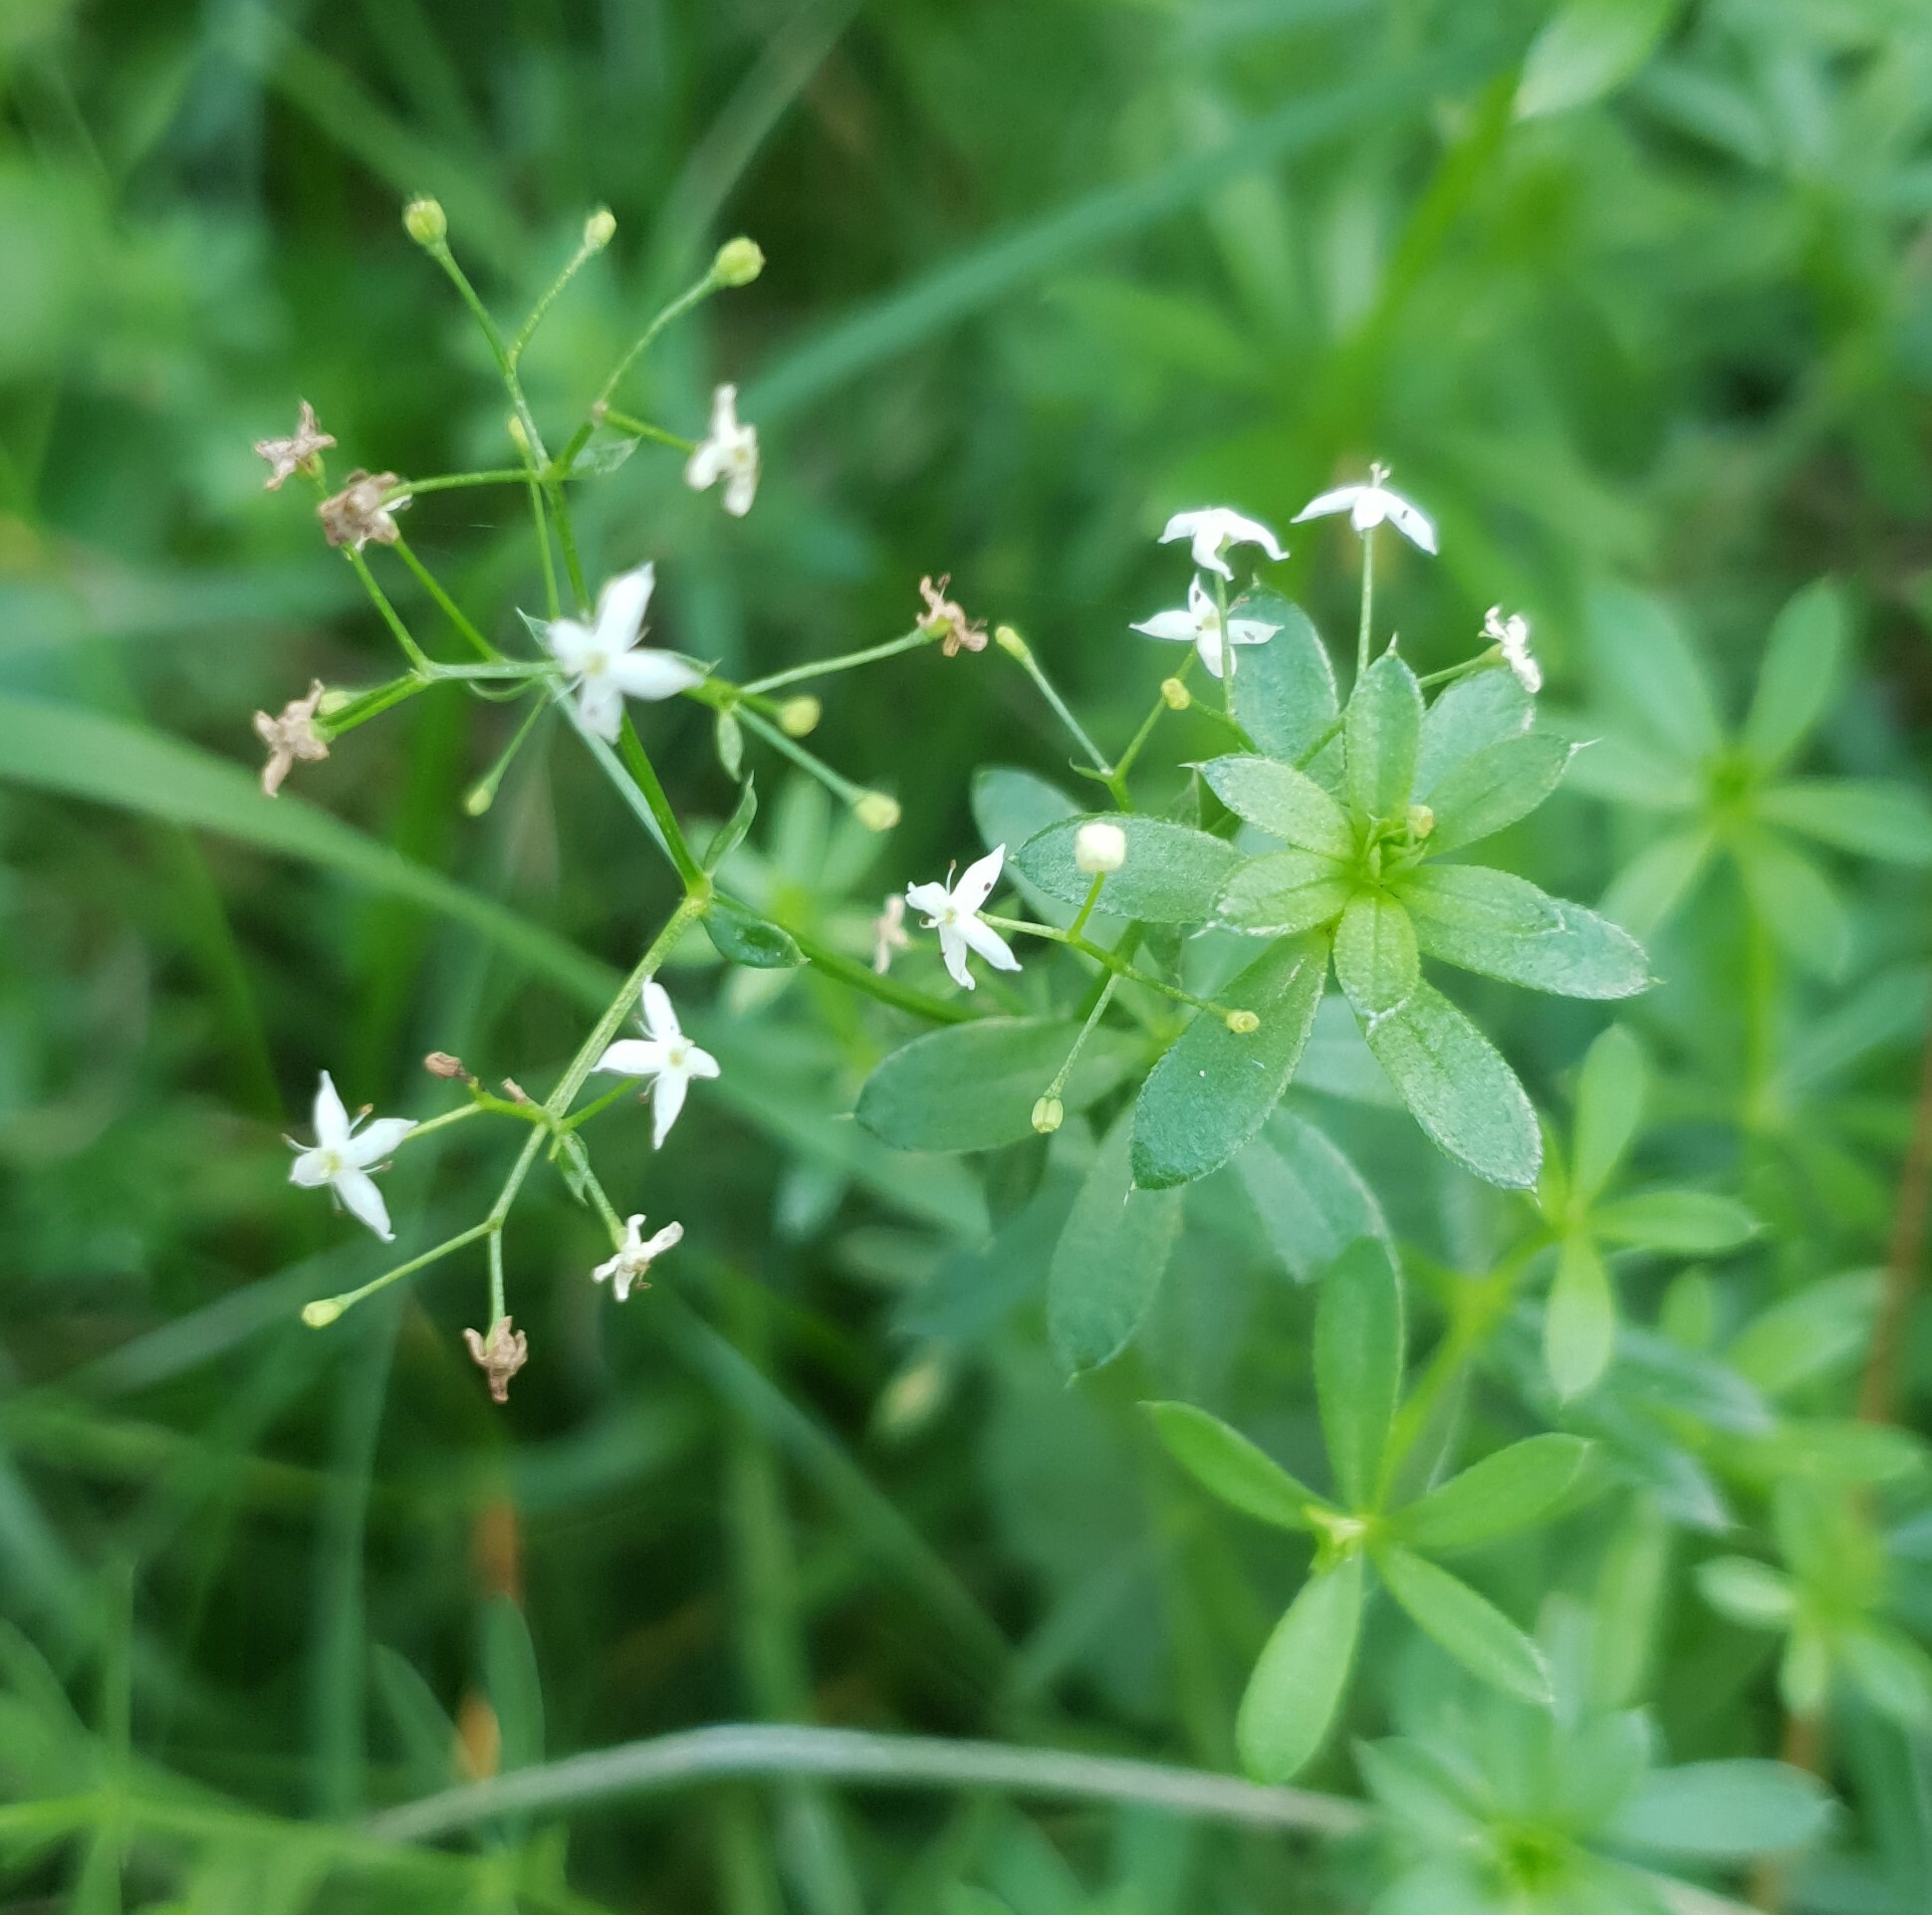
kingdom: Plantae
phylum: Tracheophyta
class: Magnoliopsida
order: Gentianales
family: Rubiaceae
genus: Galium
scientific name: Galium mollugo
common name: Hedge bedstraw
